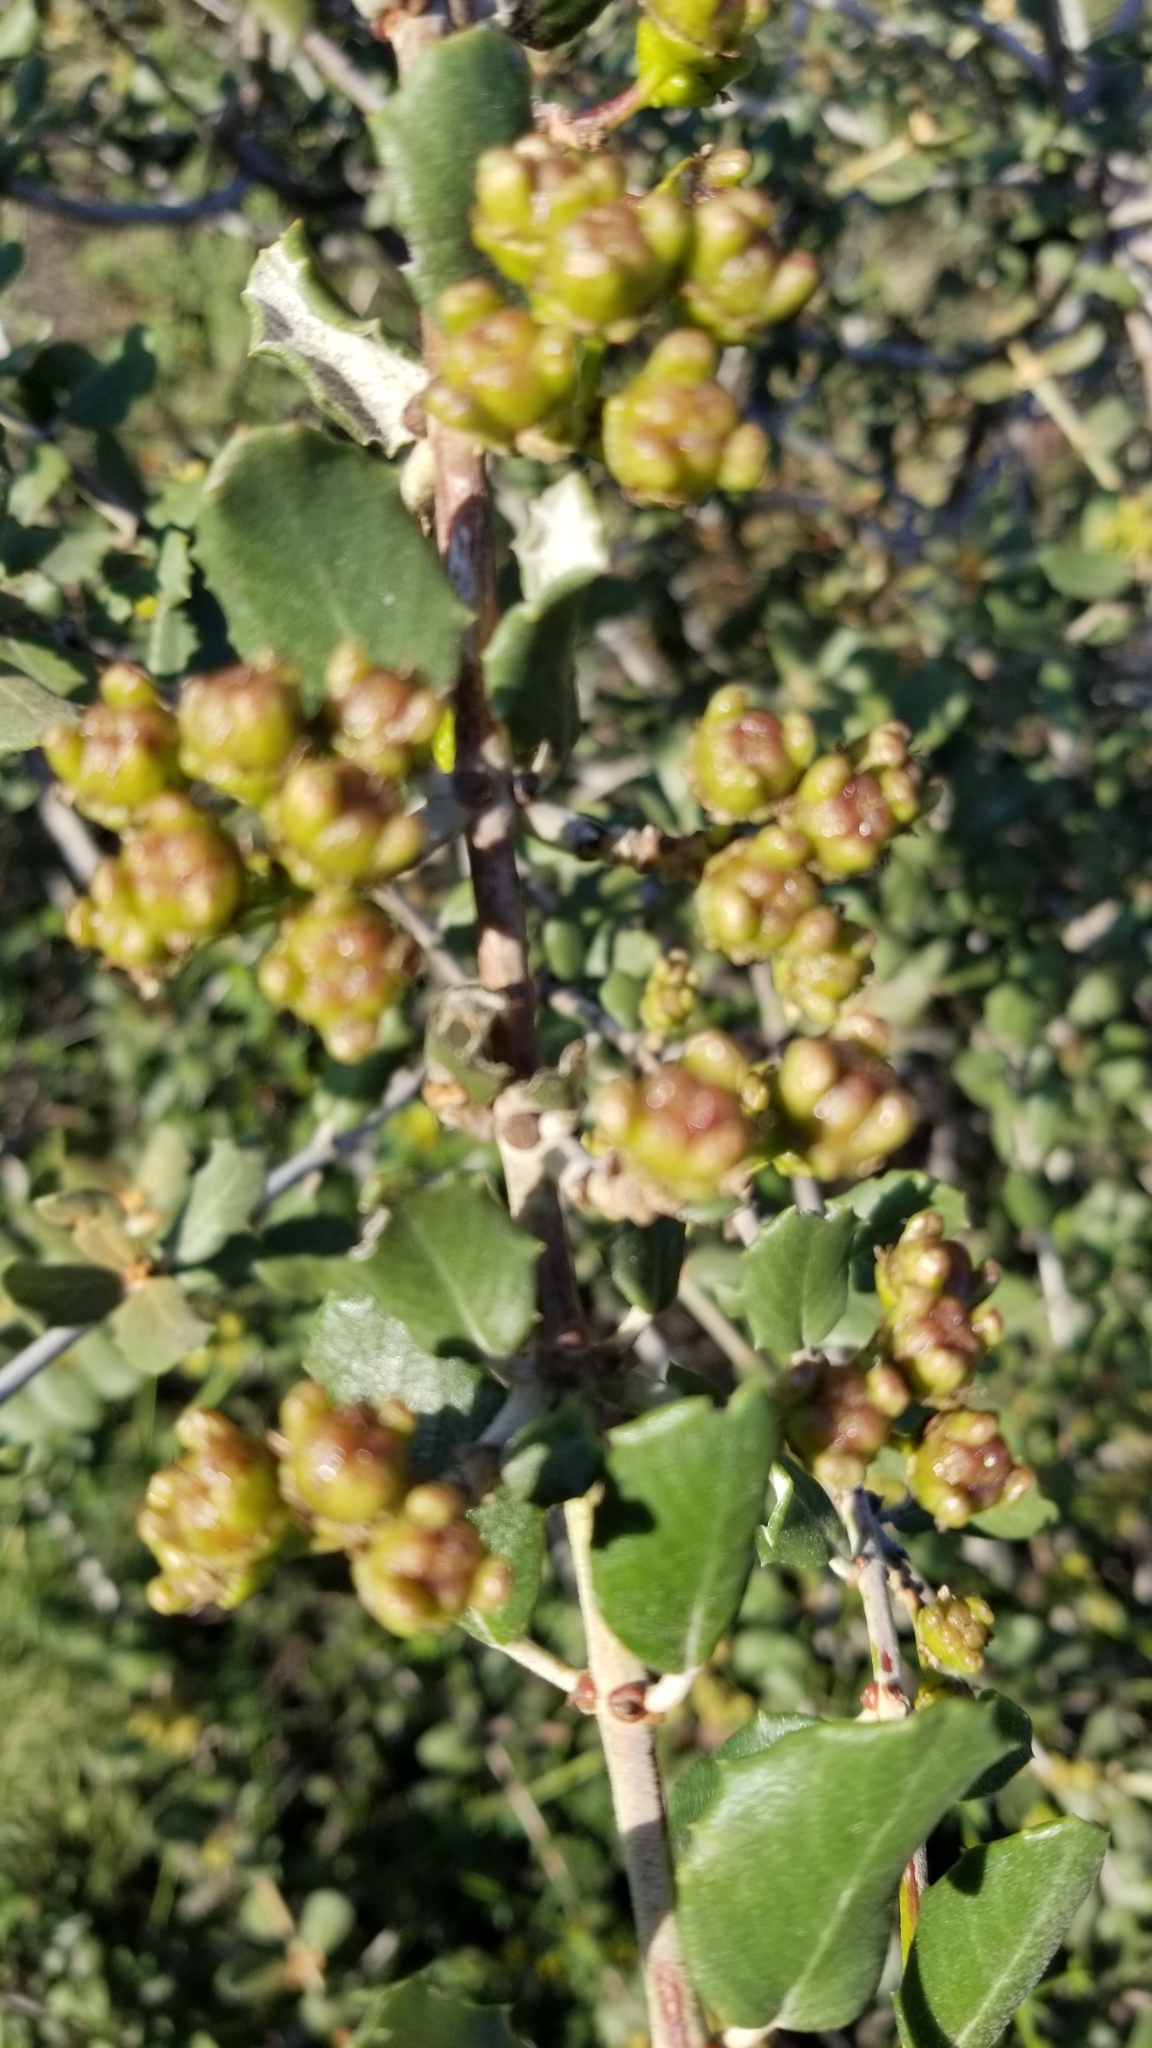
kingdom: Plantae
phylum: Tracheophyta
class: Magnoliopsida
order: Rosales
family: Rhamnaceae
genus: Ceanothus
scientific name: Ceanothus crassifolius
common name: Hoaryleaf ceanothus
